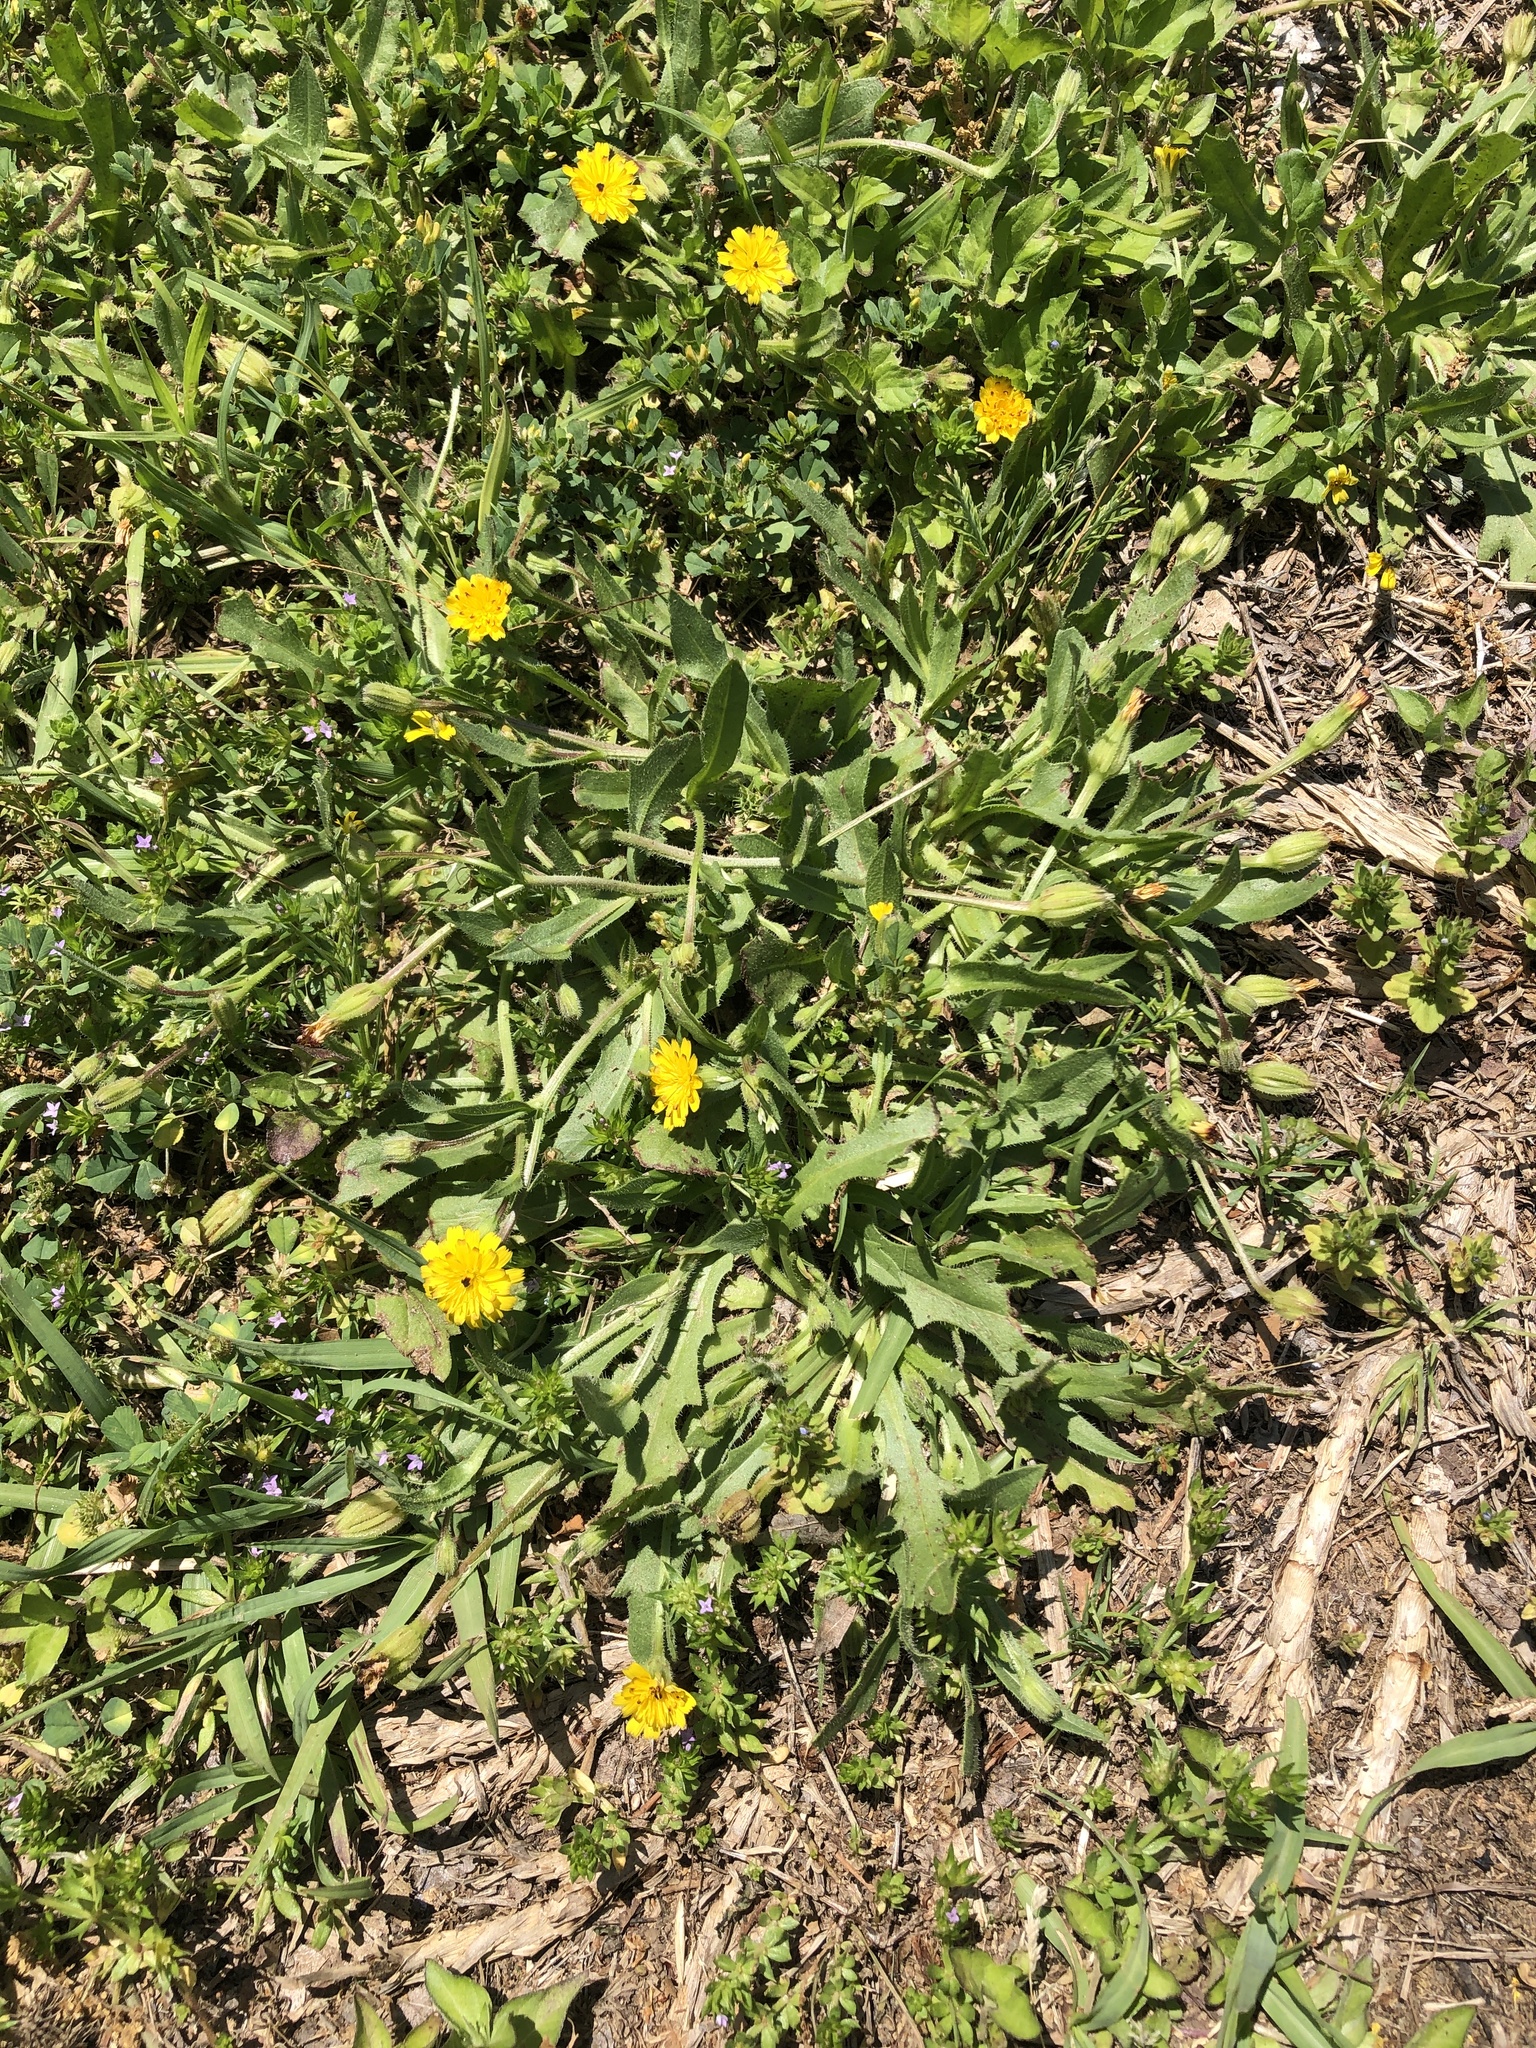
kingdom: Plantae
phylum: Tracheophyta
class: Magnoliopsida
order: Asterales
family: Asteraceae
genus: Hedypnois
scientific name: Hedypnois rhagadioloides
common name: Cretan weed
